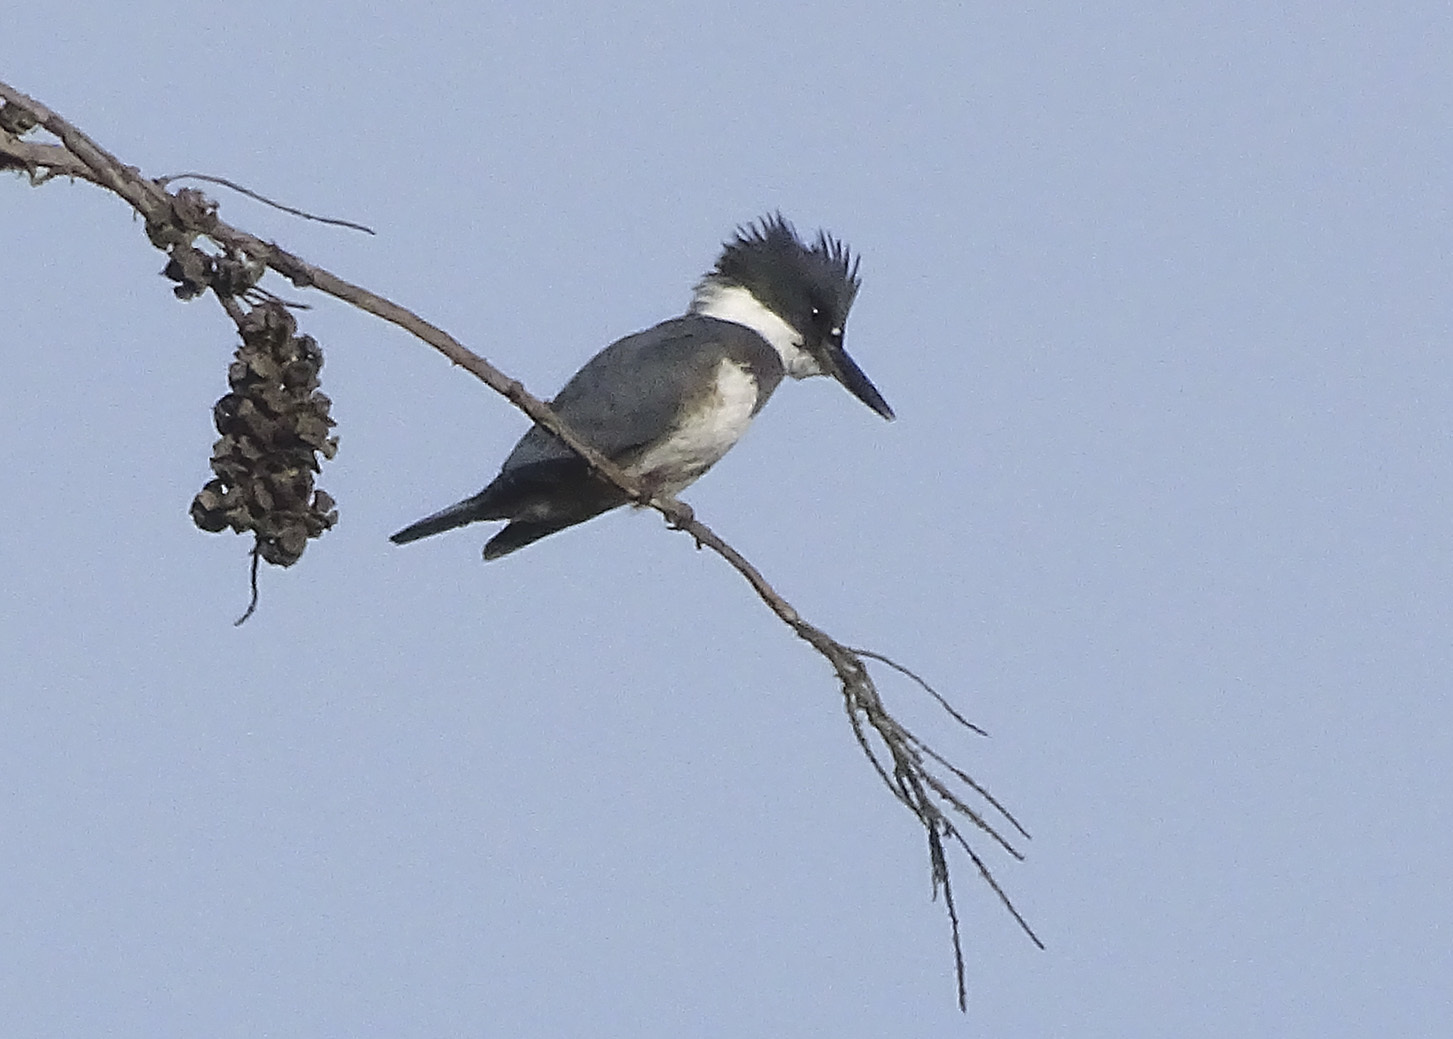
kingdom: Animalia
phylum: Chordata
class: Aves
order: Coraciiformes
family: Alcedinidae
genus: Megaceryle
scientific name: Megaceryle alcyon
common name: Belted kingfisher
